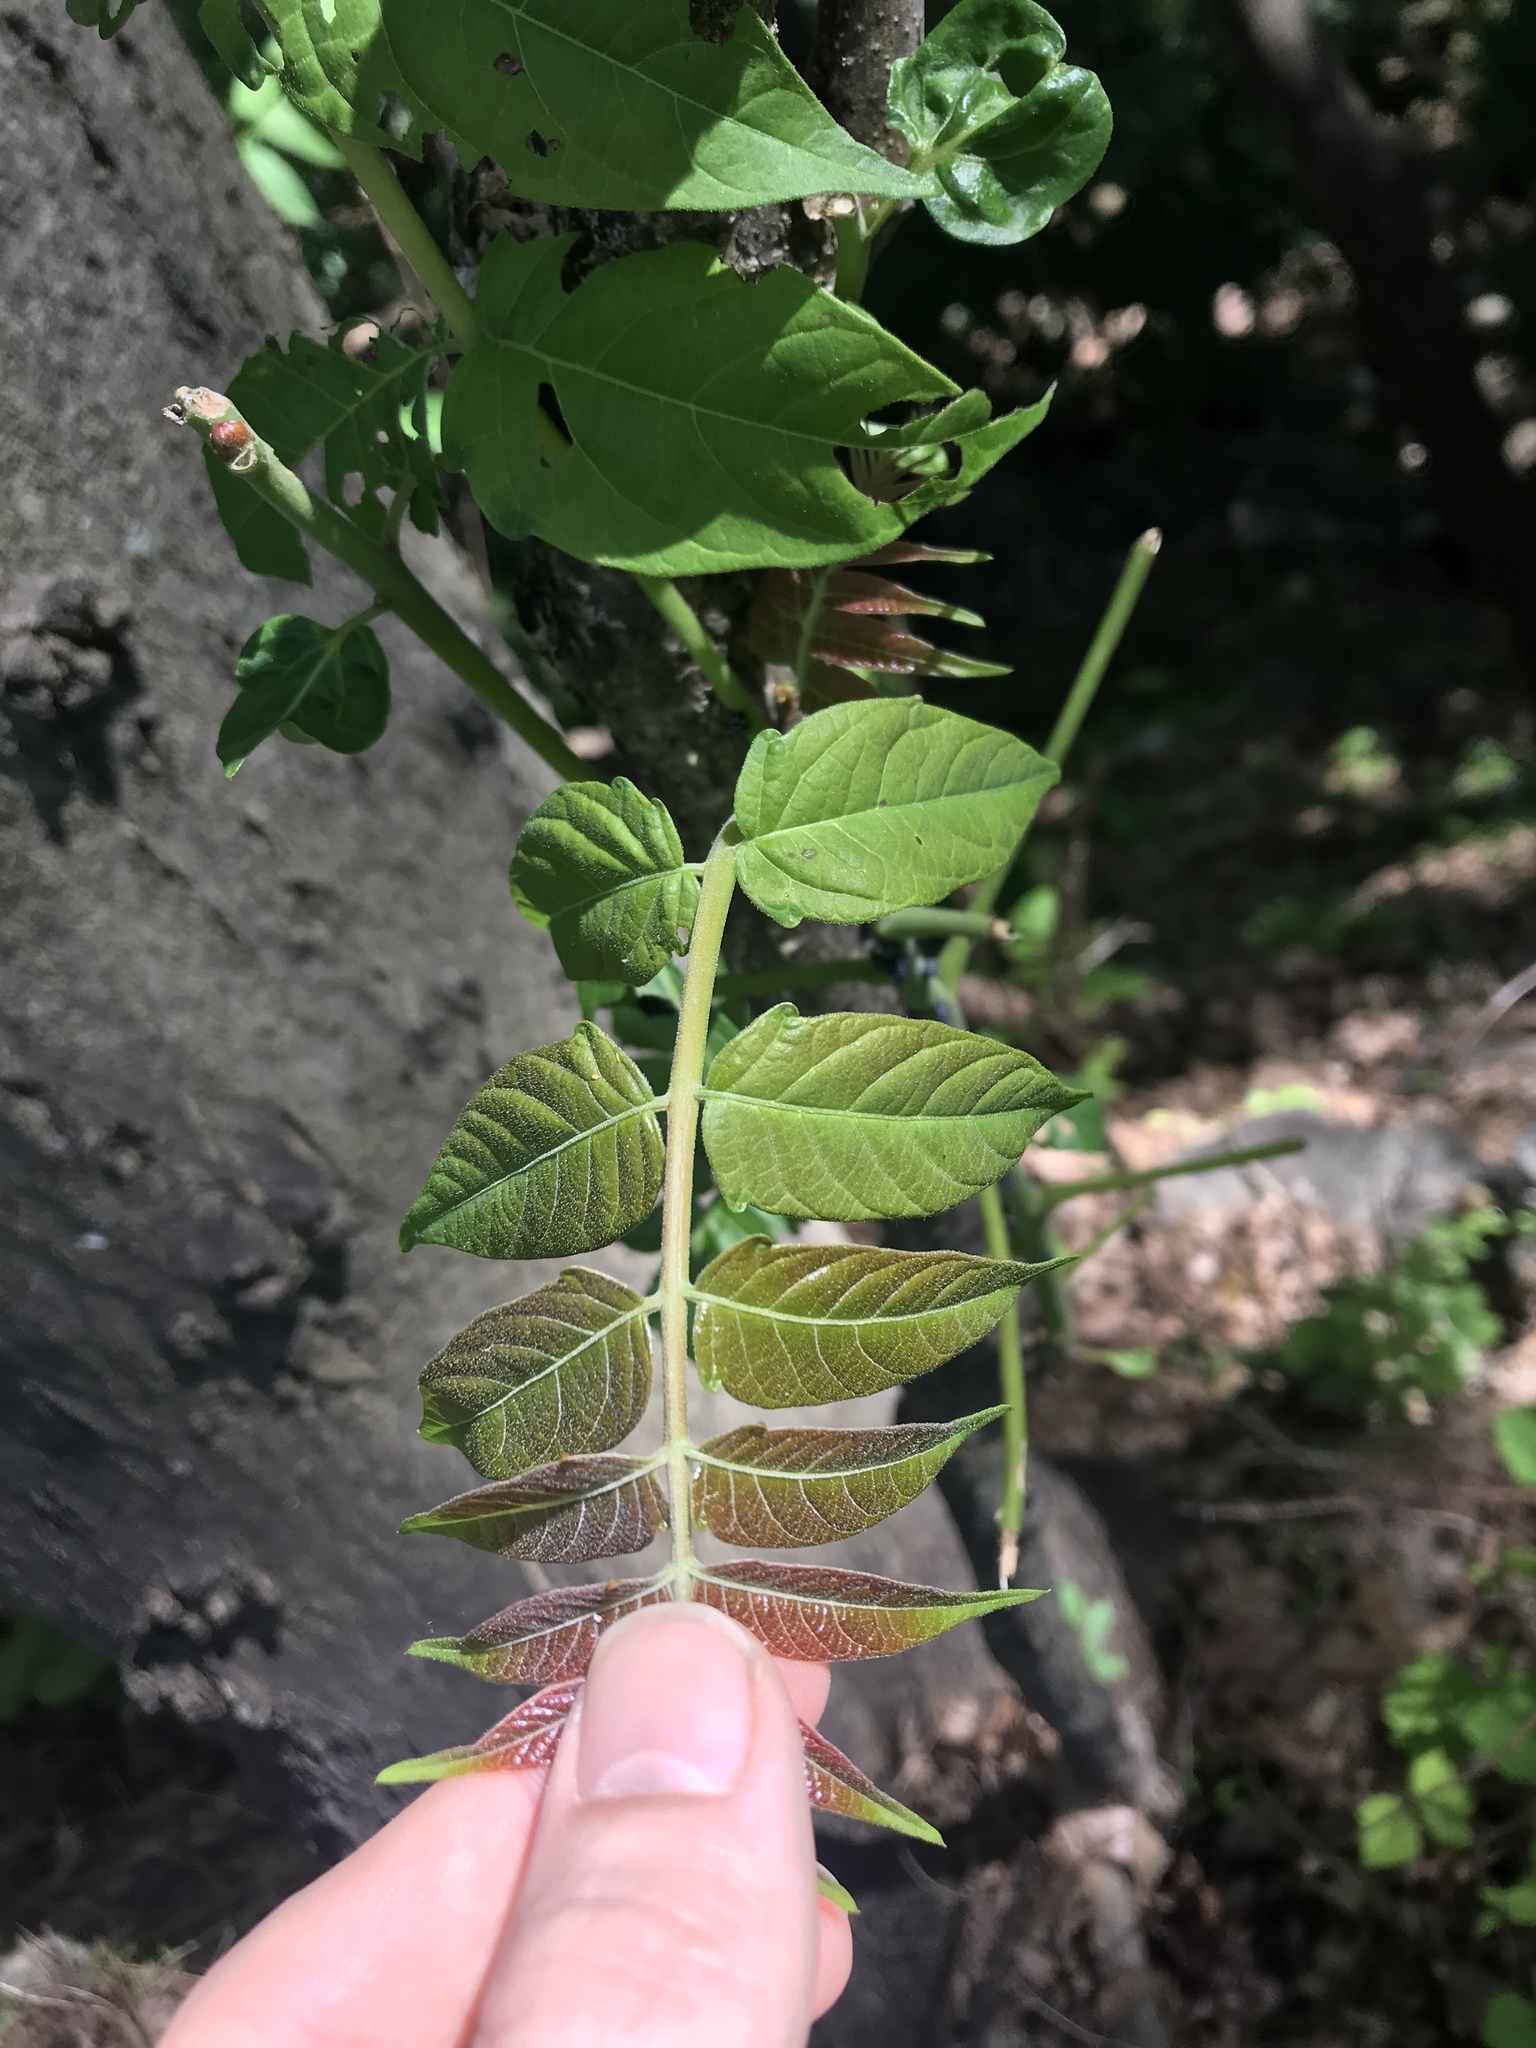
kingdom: Plantae
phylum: Tracheophyta
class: Magnoliopsida
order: Sapindales
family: Simaroubaceae
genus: Ailanthus
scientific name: Ailanthus altissima
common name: Tree-of-heaven
